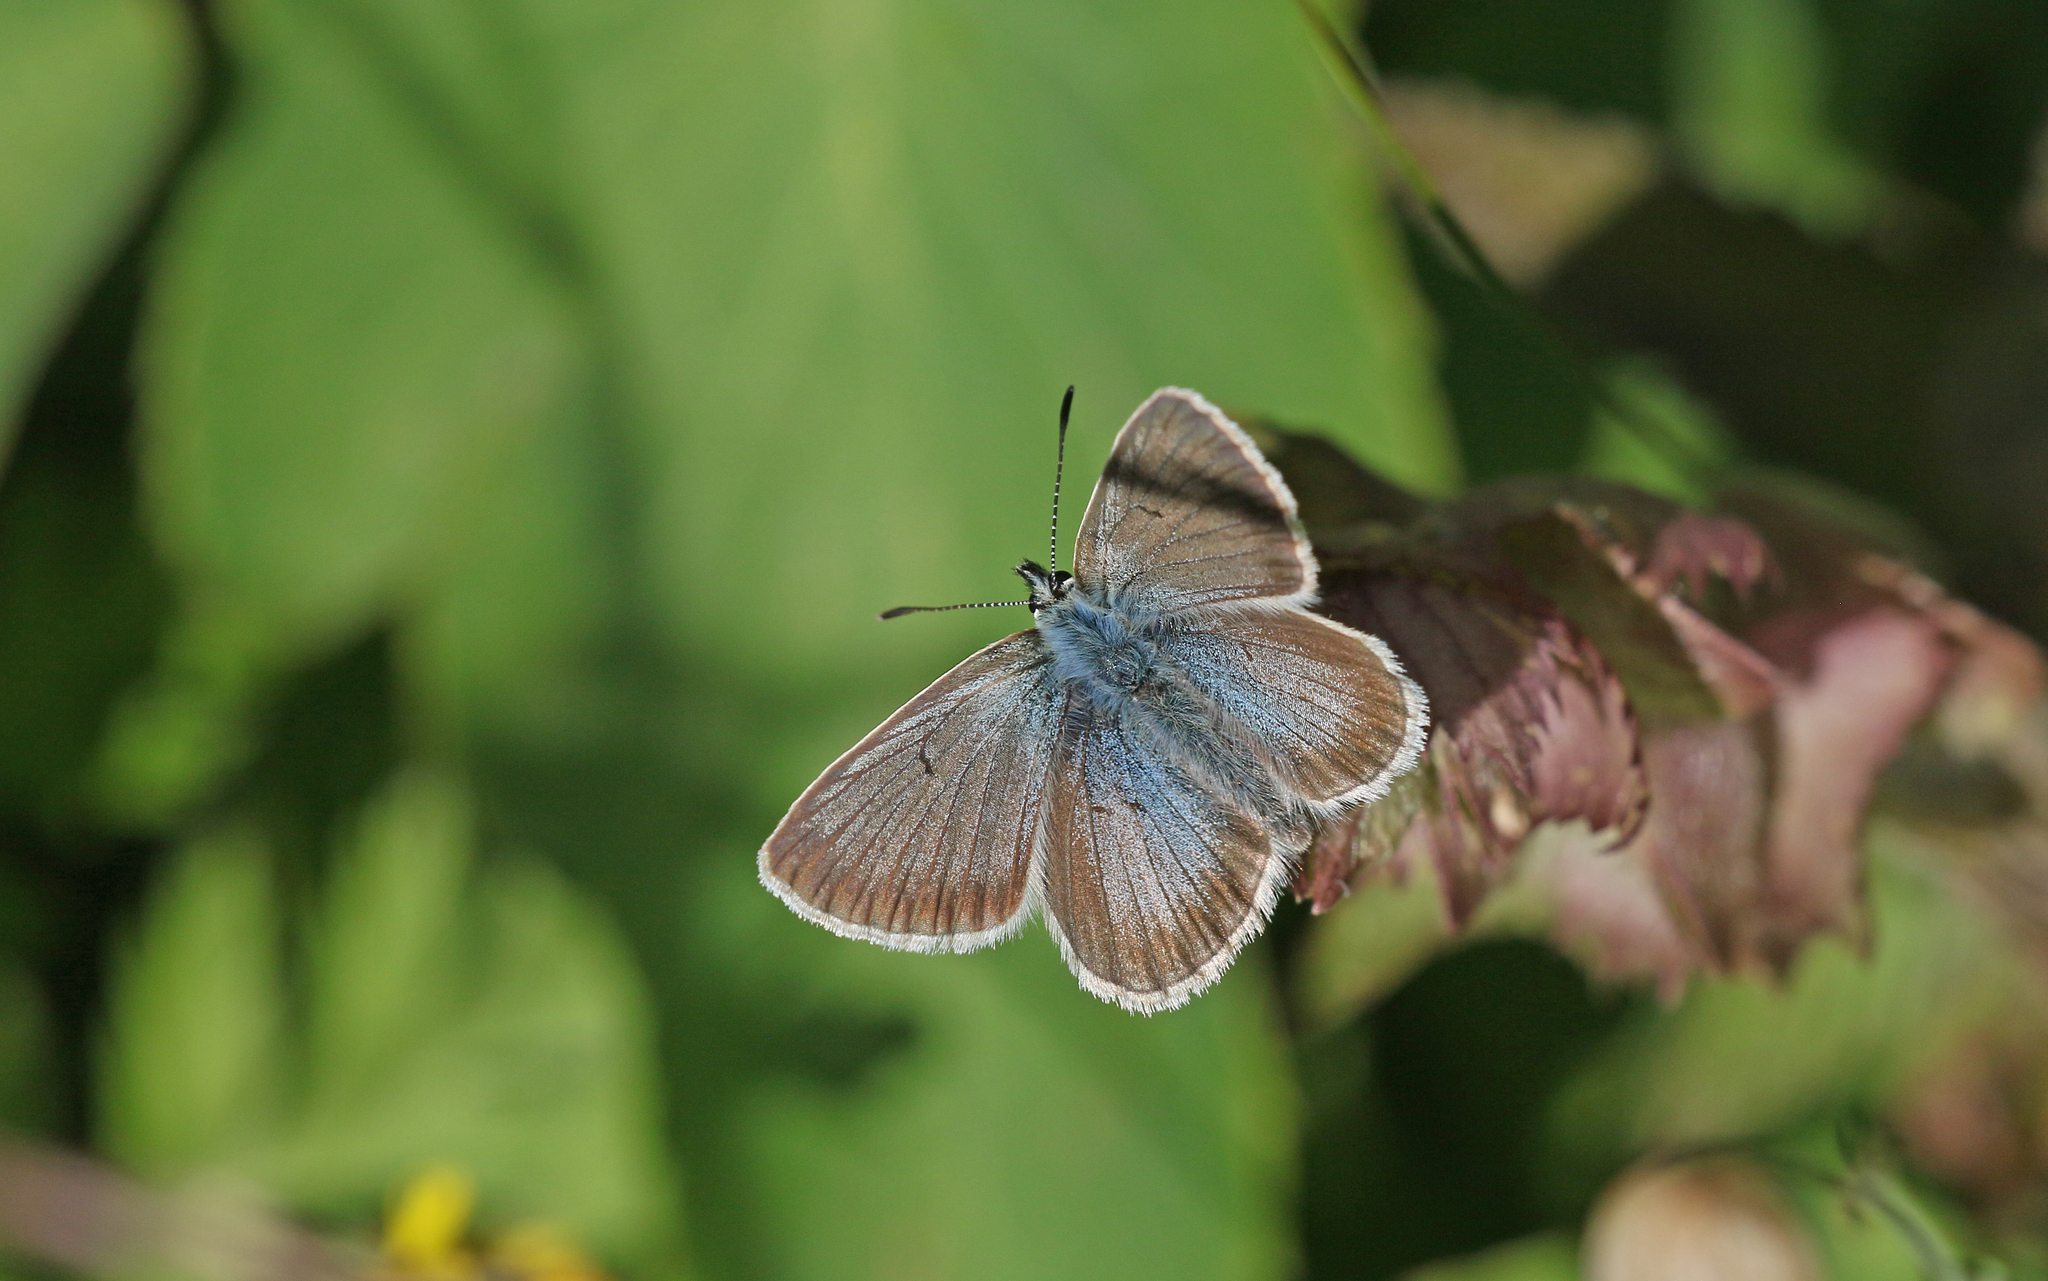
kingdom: Animalia
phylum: Arthropoda
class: Insecta
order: Lepidoptera
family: Lycaenidae
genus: Pseudoaricia
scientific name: Pseudoaricia nicias
